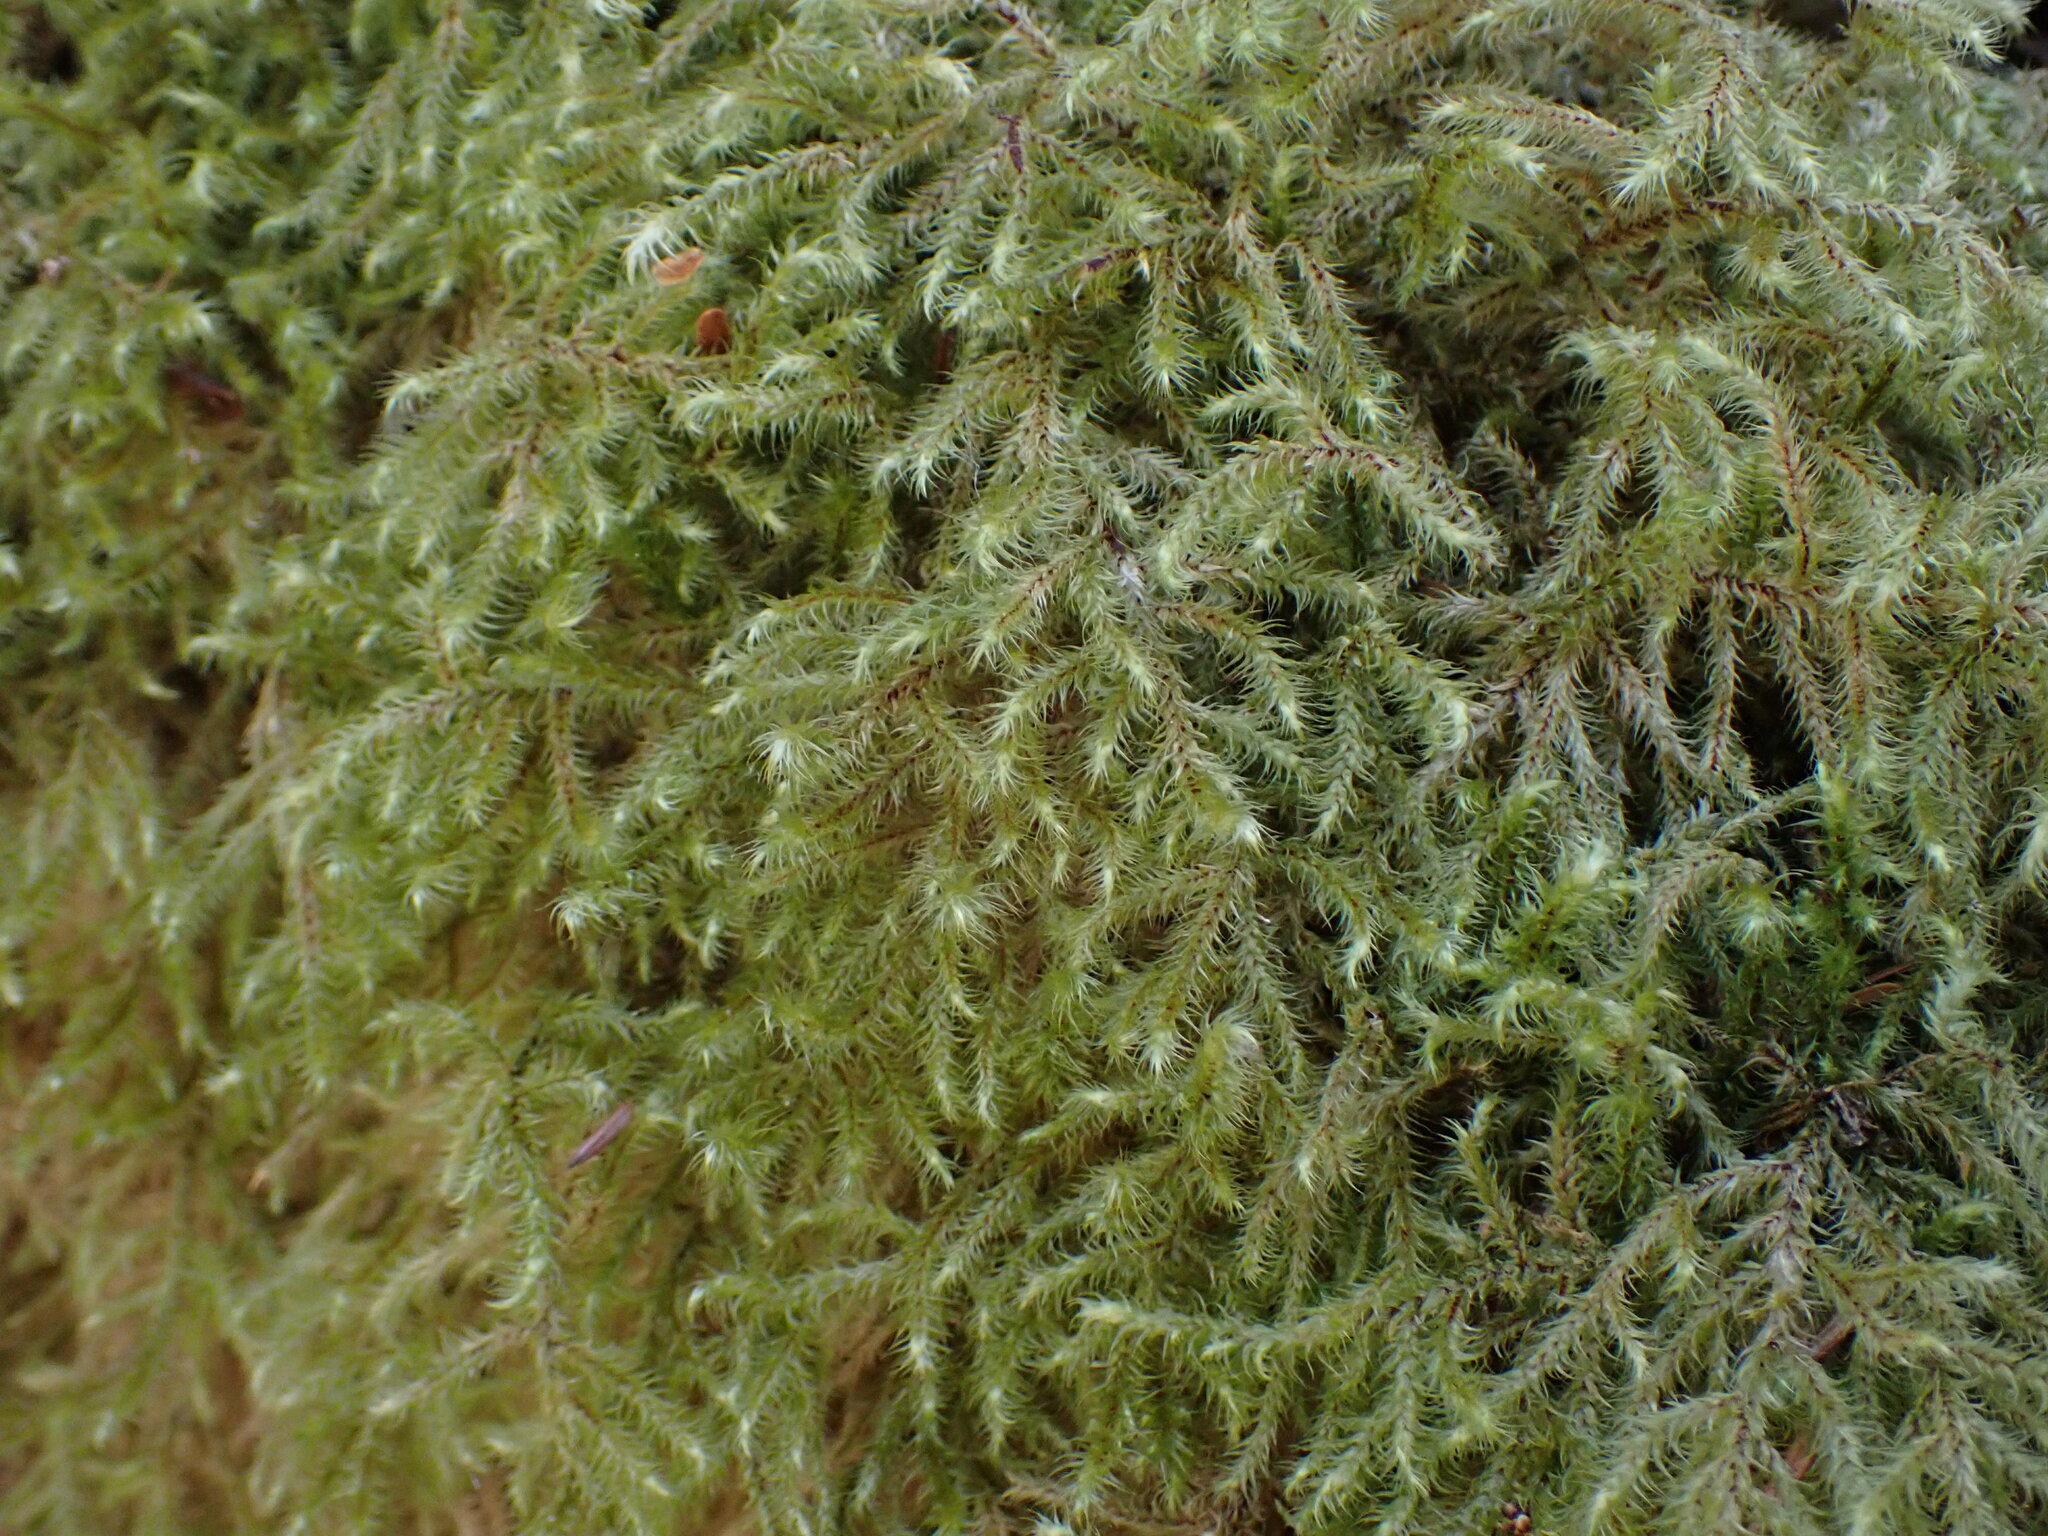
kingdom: Plantae
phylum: Bryophyta
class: Bryopsida
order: Hypnales
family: Hylocomiaceae
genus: Rhytidiadelphus
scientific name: Rhytidiadelphus loreus
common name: Lanky moss
